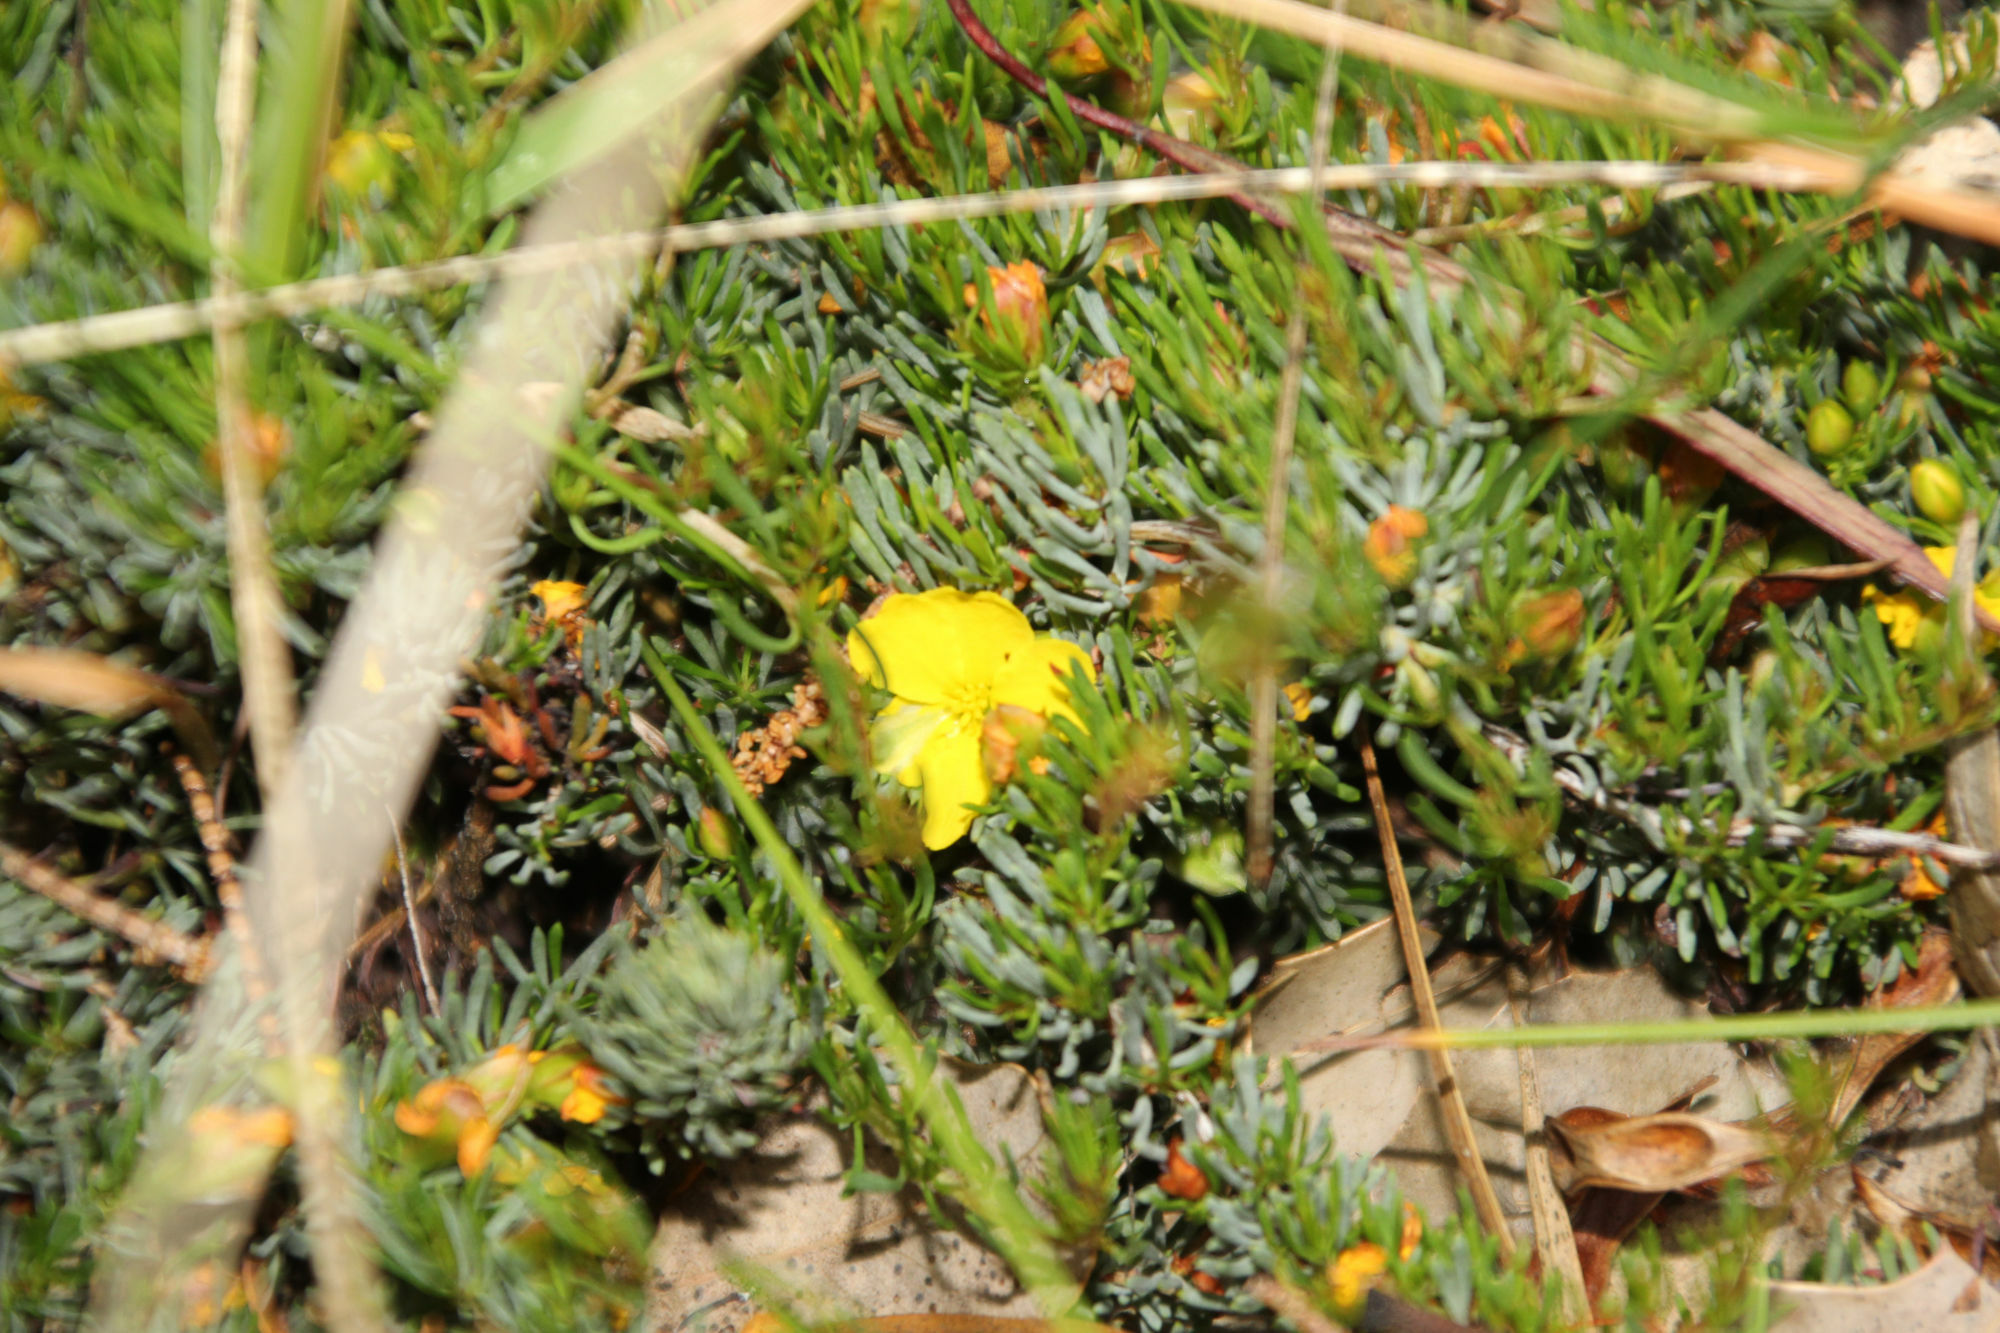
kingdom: Plantae
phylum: Tracheophyta
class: Magnoliopsida
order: Dilleniales
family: Dilleniaceae
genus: Hibbertia
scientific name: Hibbertia hibbertioides
